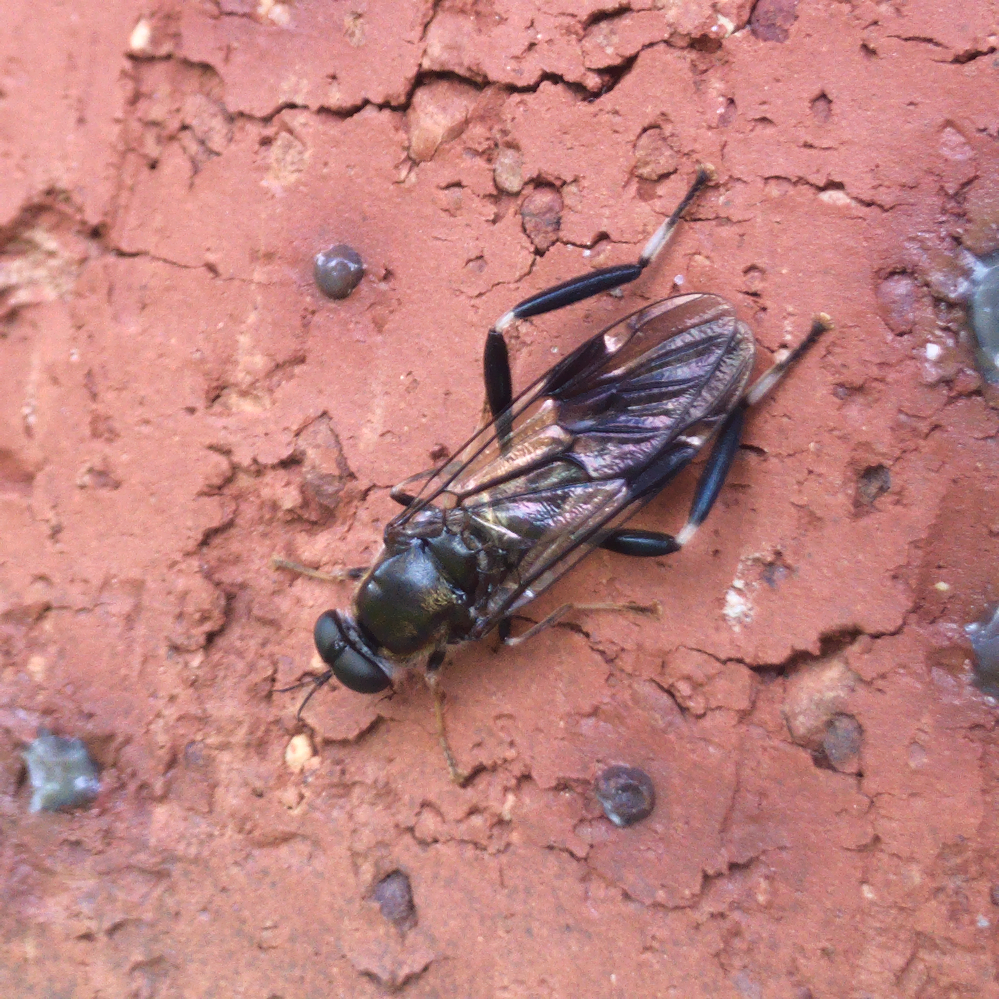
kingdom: Animalia
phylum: Arthropoda
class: Insecta
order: Diptera
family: Stratiomyidae
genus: Exaireta
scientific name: Exaireta spinigera
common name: Blue soldier fly
